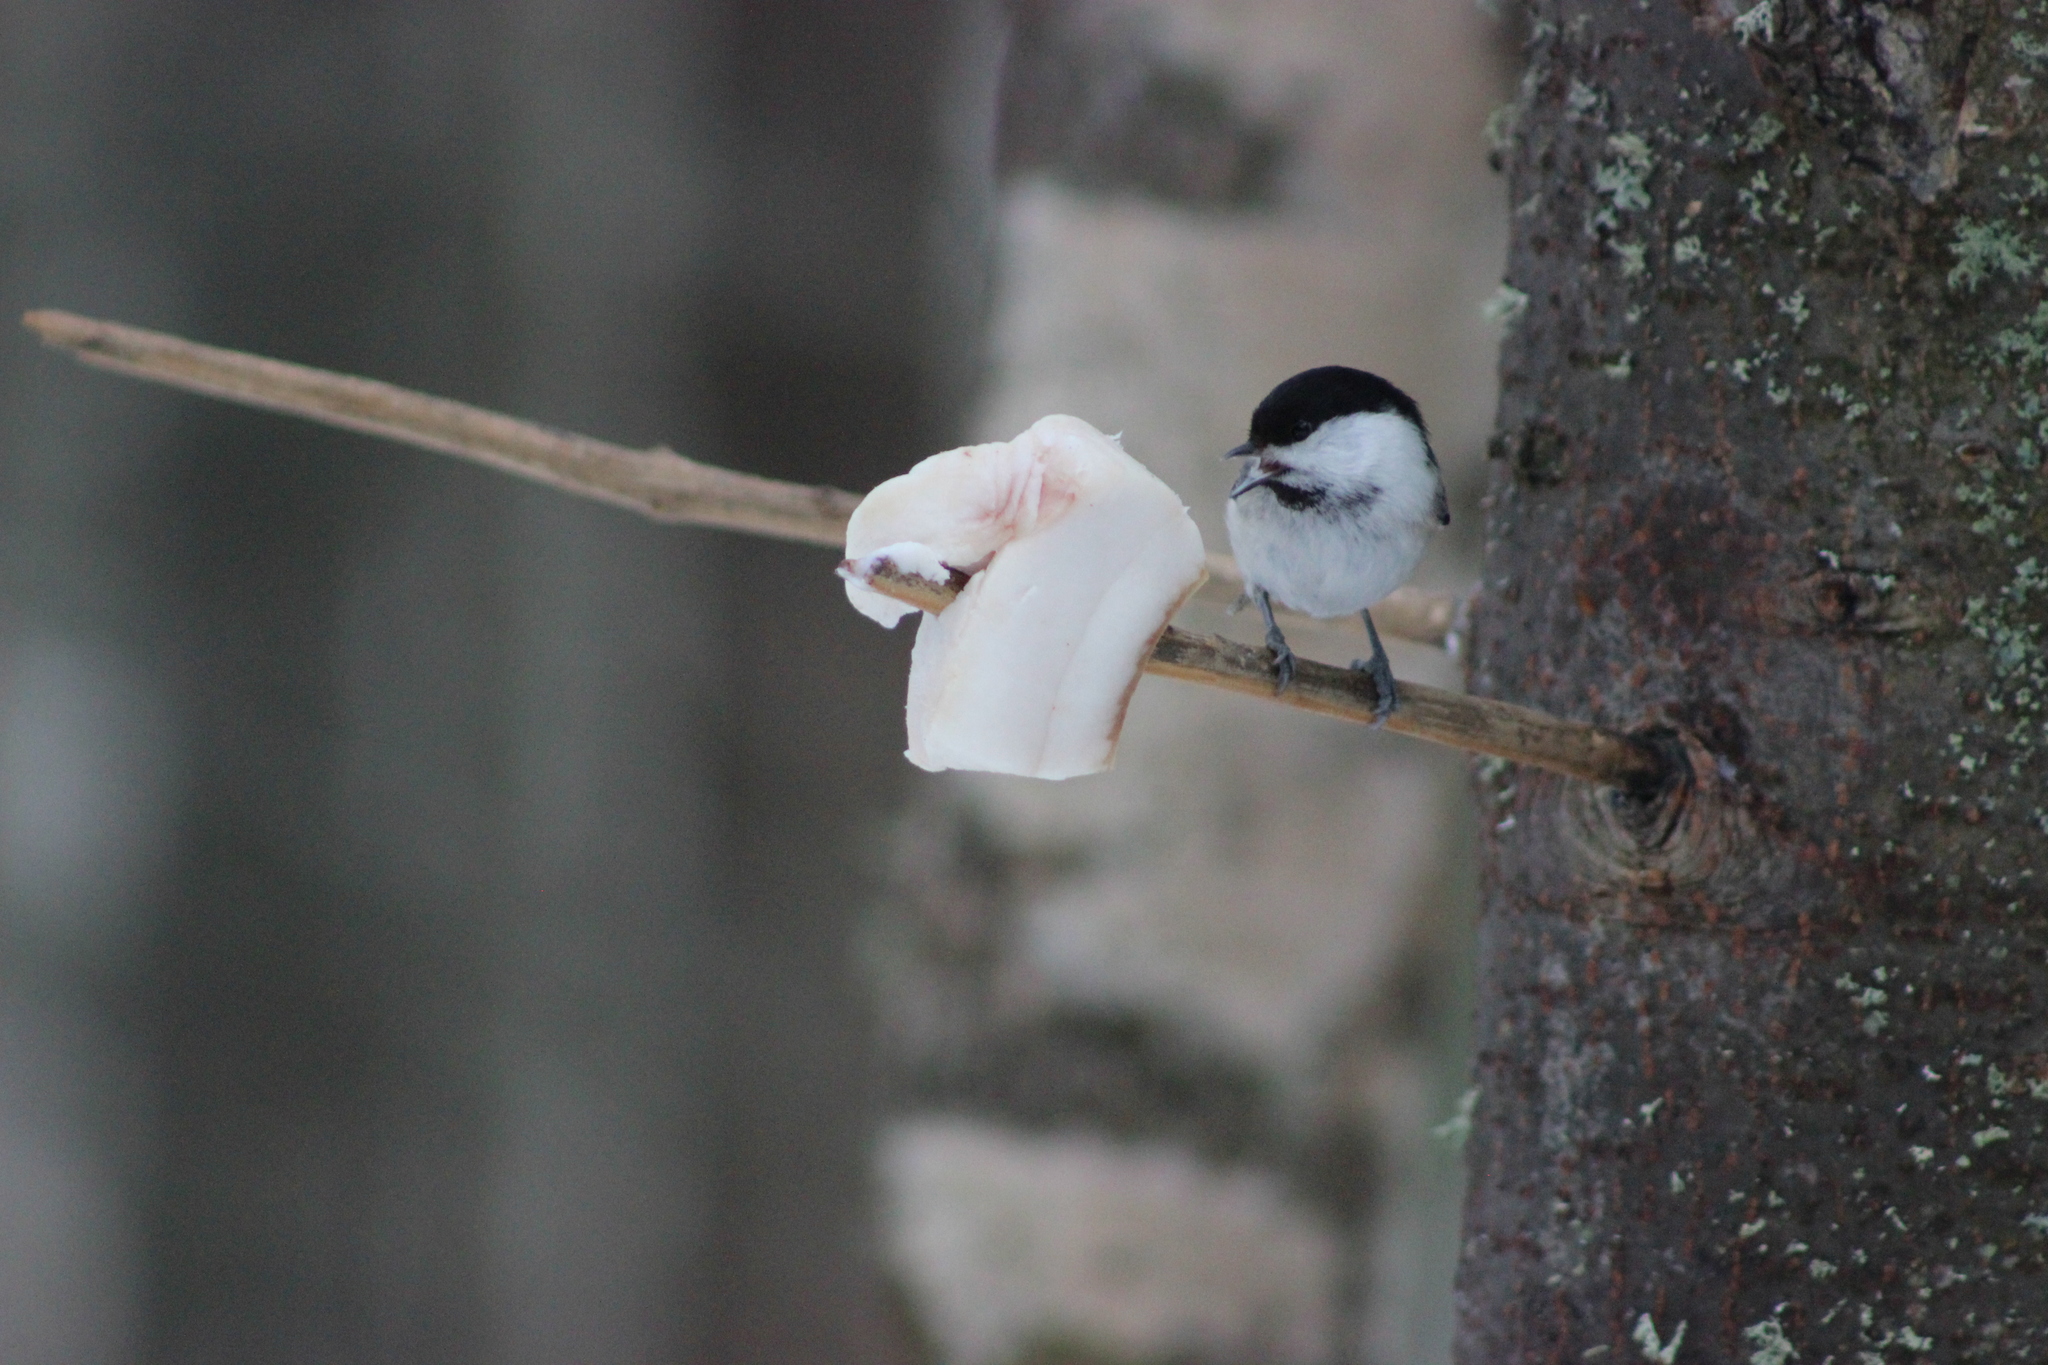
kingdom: Animalia
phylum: Chordata
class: Aves
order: Passeriformes
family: Paridae
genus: Poecile
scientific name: Poecile montanus
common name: Willow tit
